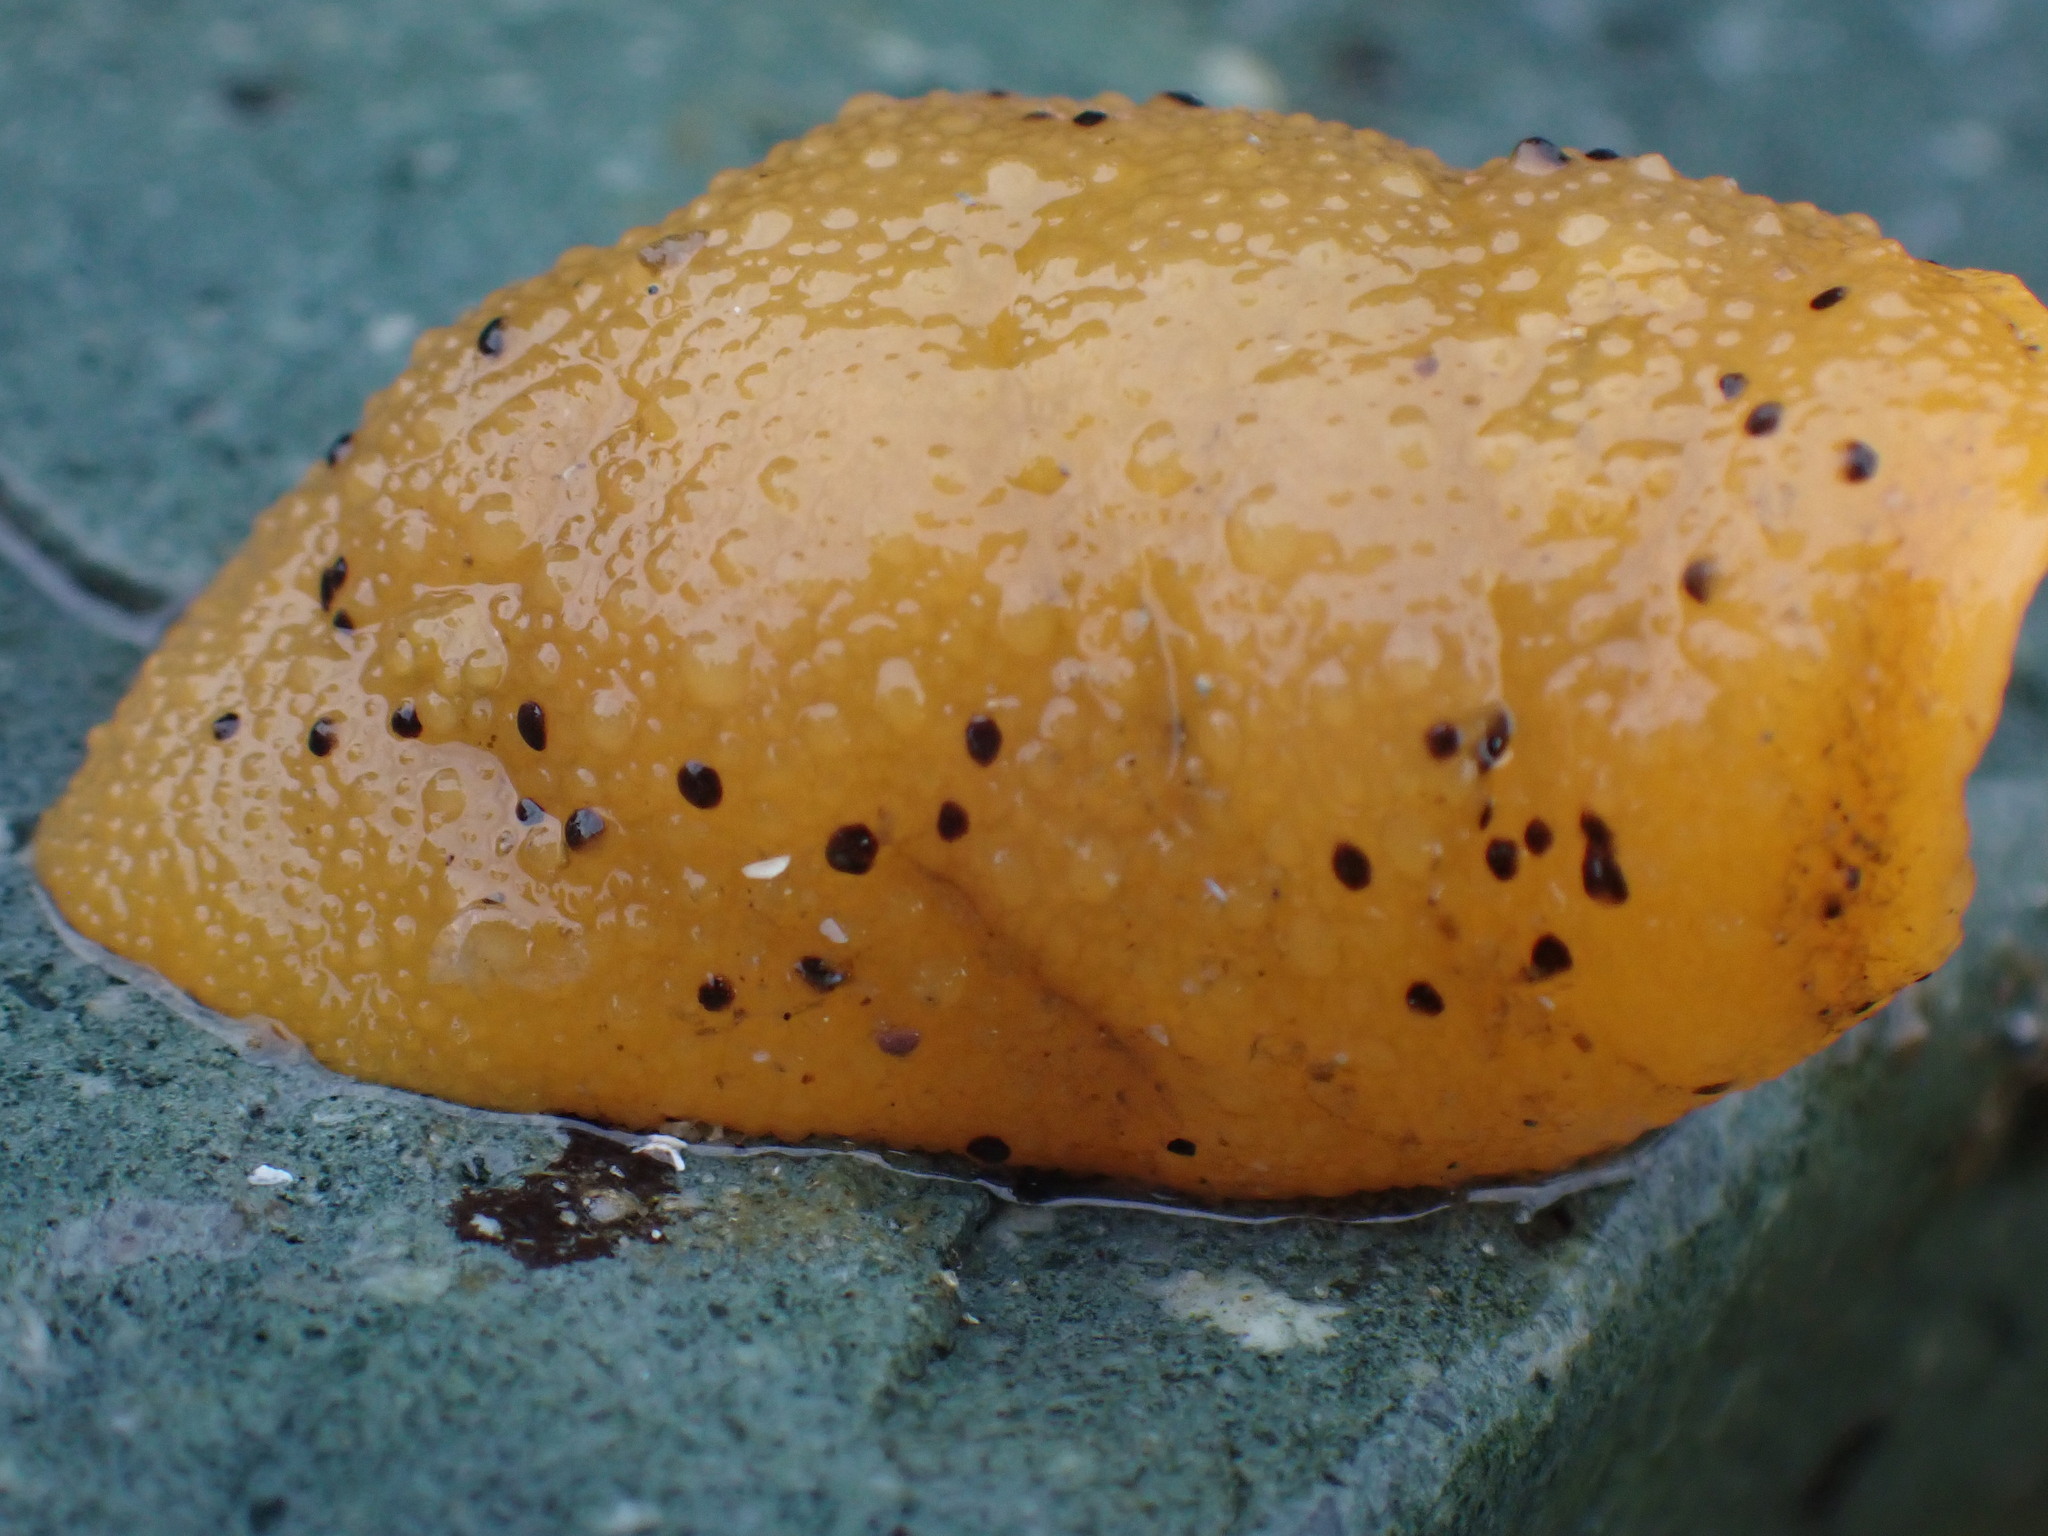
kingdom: Animalia
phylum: Mollusca
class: Gastropoda
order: Nudibranchia
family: Dorididae
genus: Doris
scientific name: Doris montereyensis
